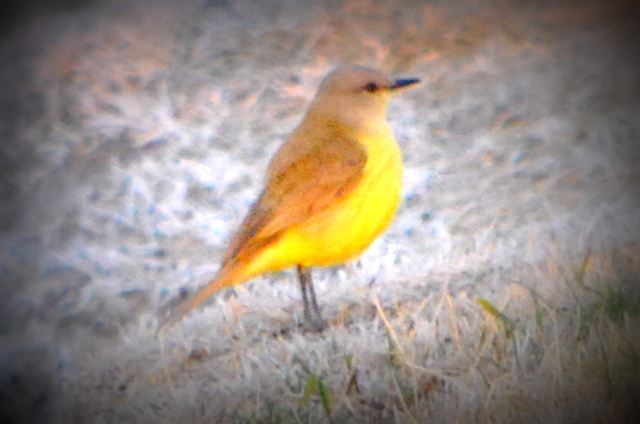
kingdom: Animalia
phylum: Chordata
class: Aves
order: Passeriformes
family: Tyrannidae
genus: Machetornis
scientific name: Machetornis rixosa
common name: Cattle tyrant
